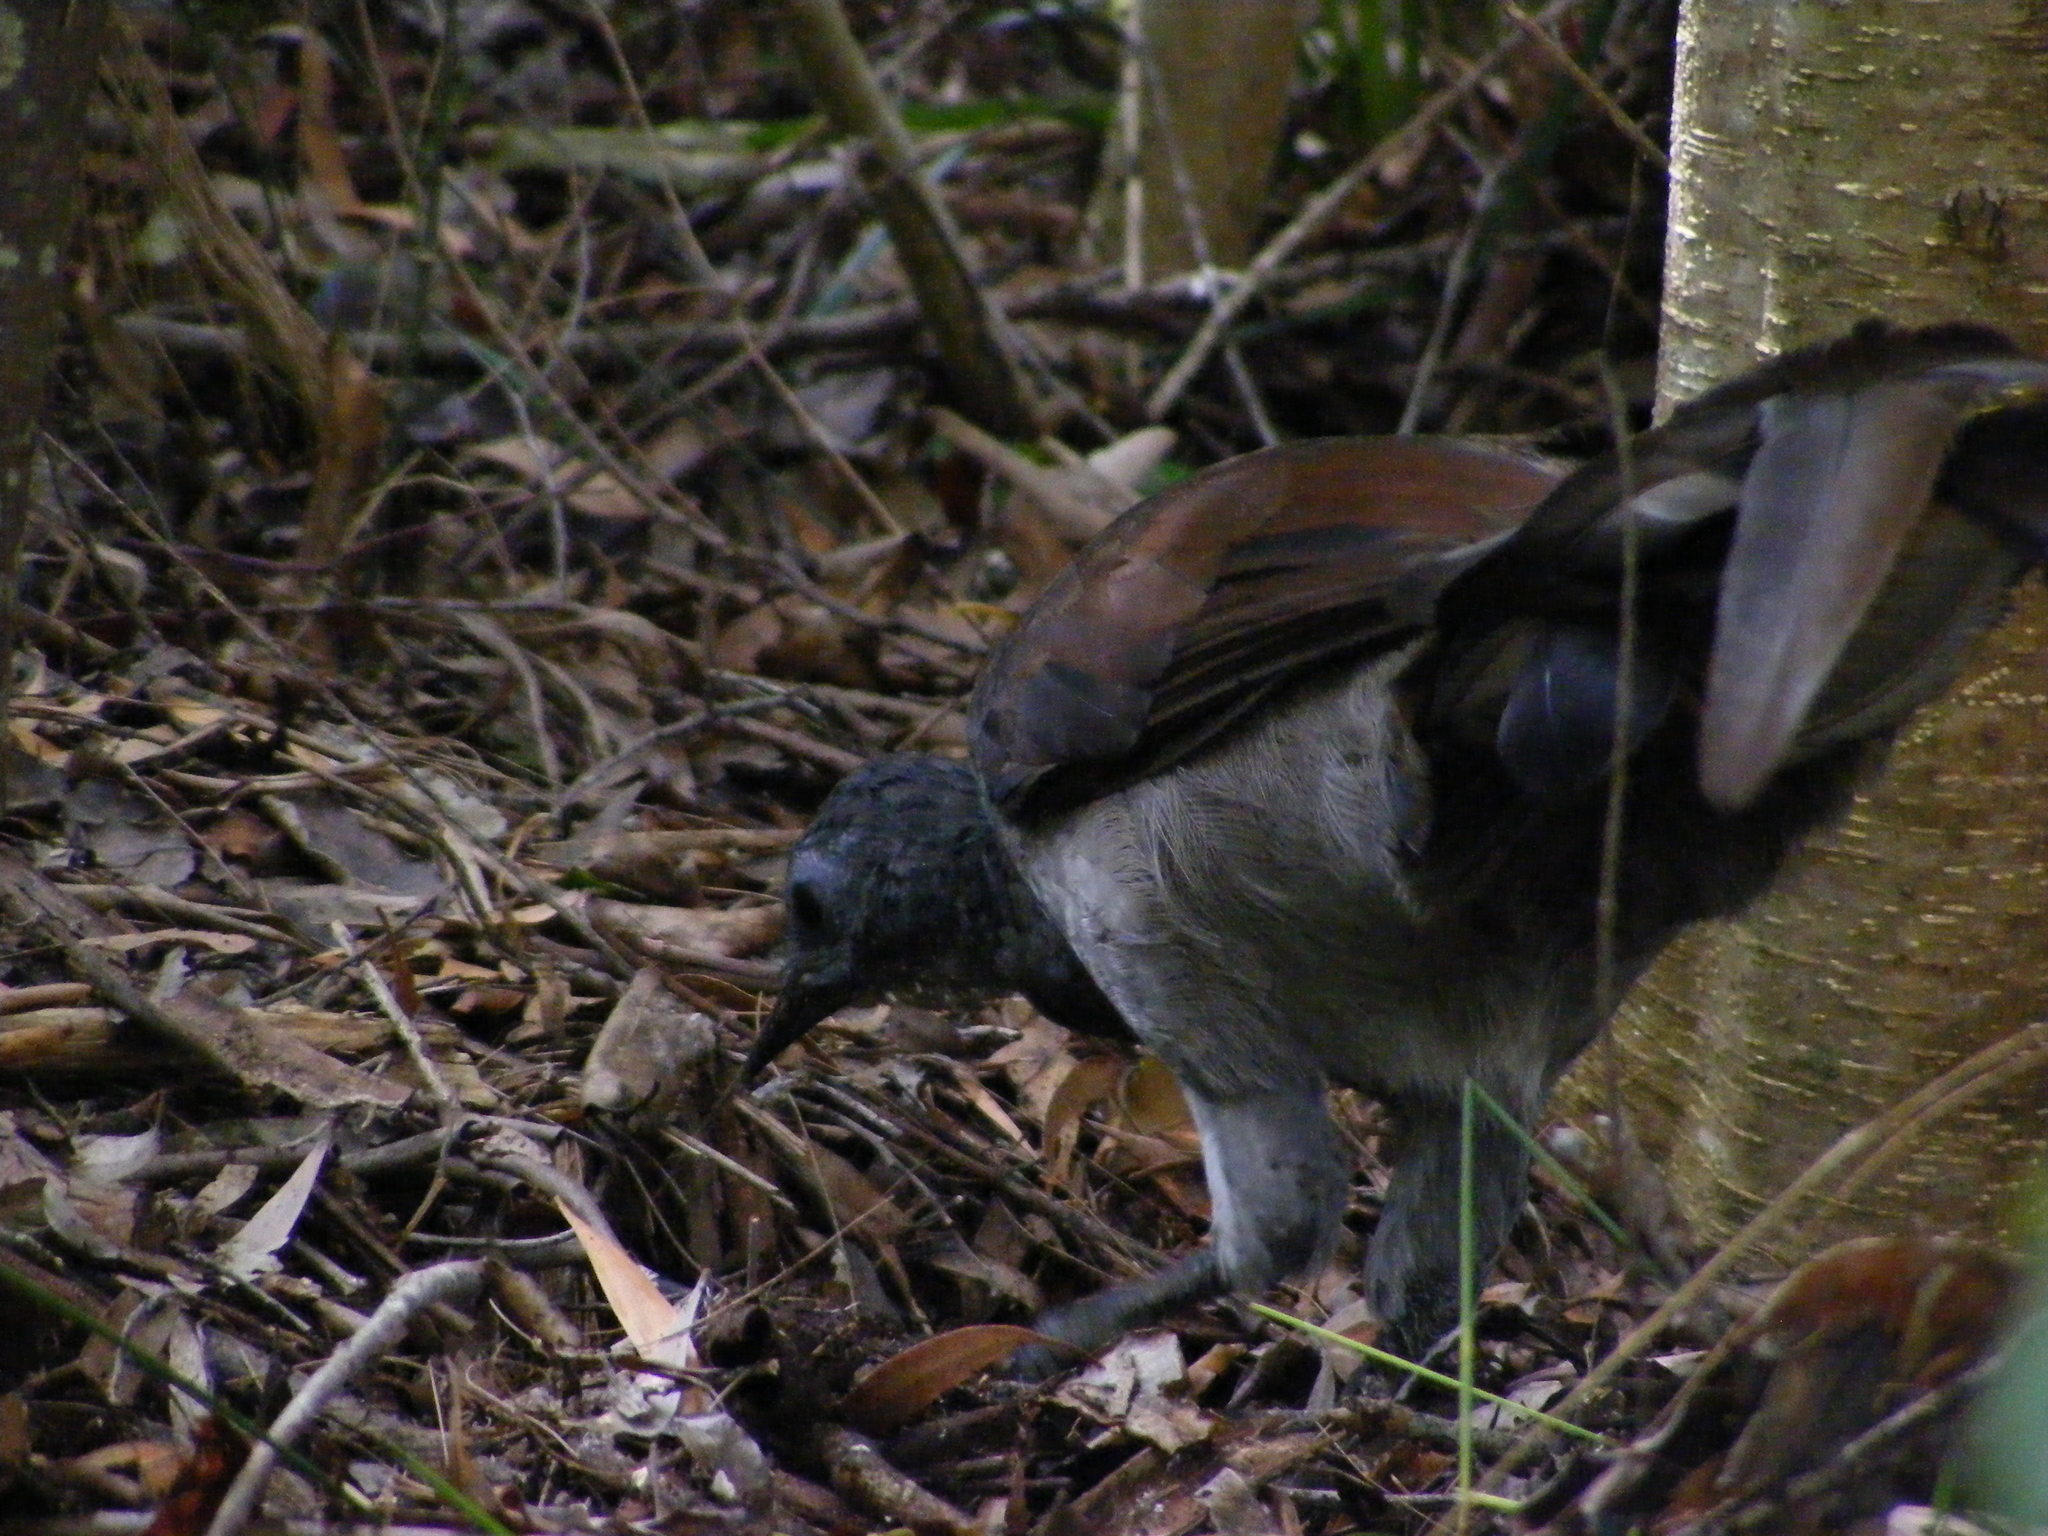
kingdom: Animalia
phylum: Chordata
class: Aves
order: Passeriformes
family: Menuridae
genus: Menura
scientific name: Menura novaehollandiae
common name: Superb lyrebird
